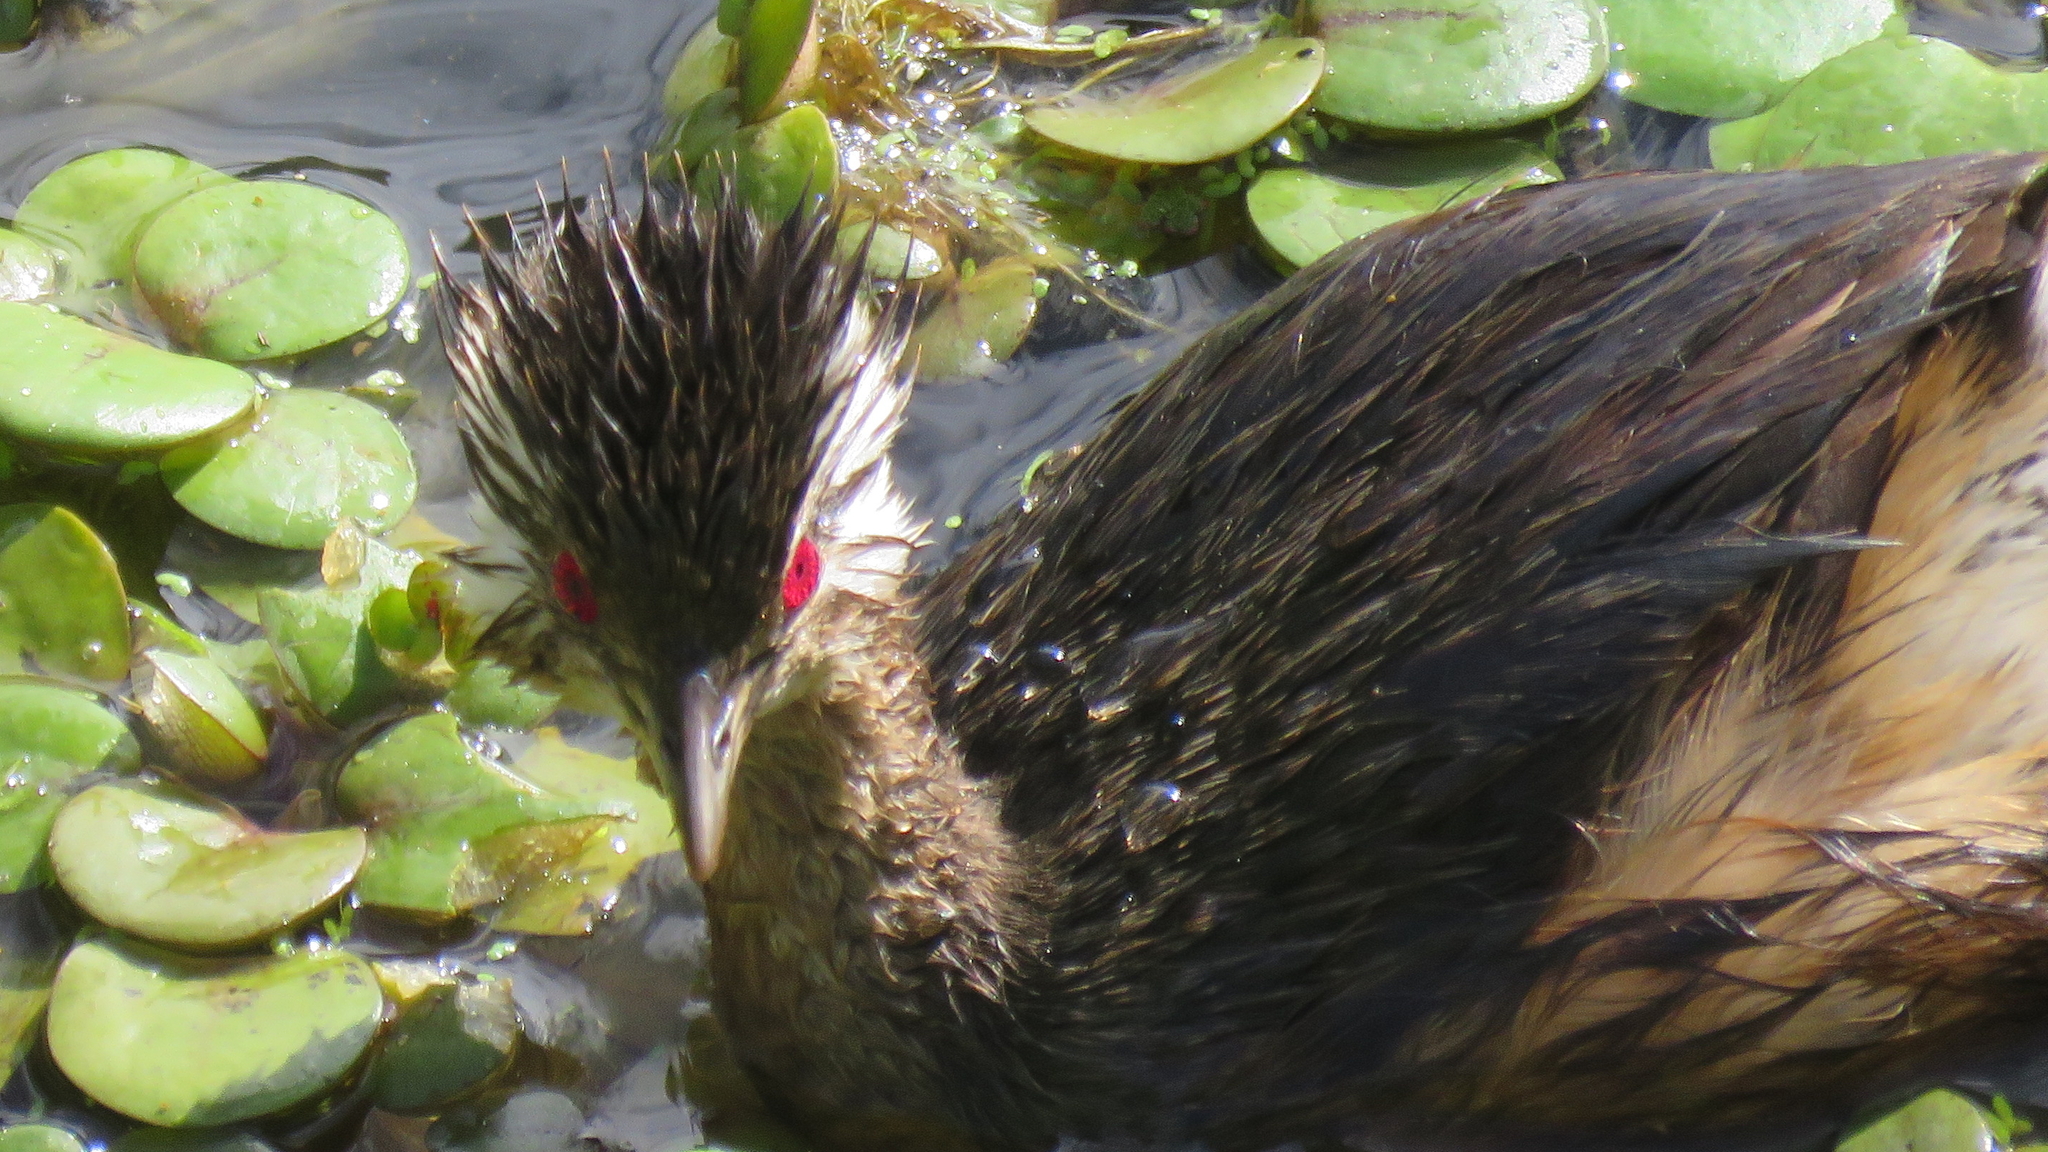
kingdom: Animalia
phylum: Chordata
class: Aves
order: Podicipediformes
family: Podicipedidae
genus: Rollandia
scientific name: Rollandia rolland
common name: White-tufted grebe
